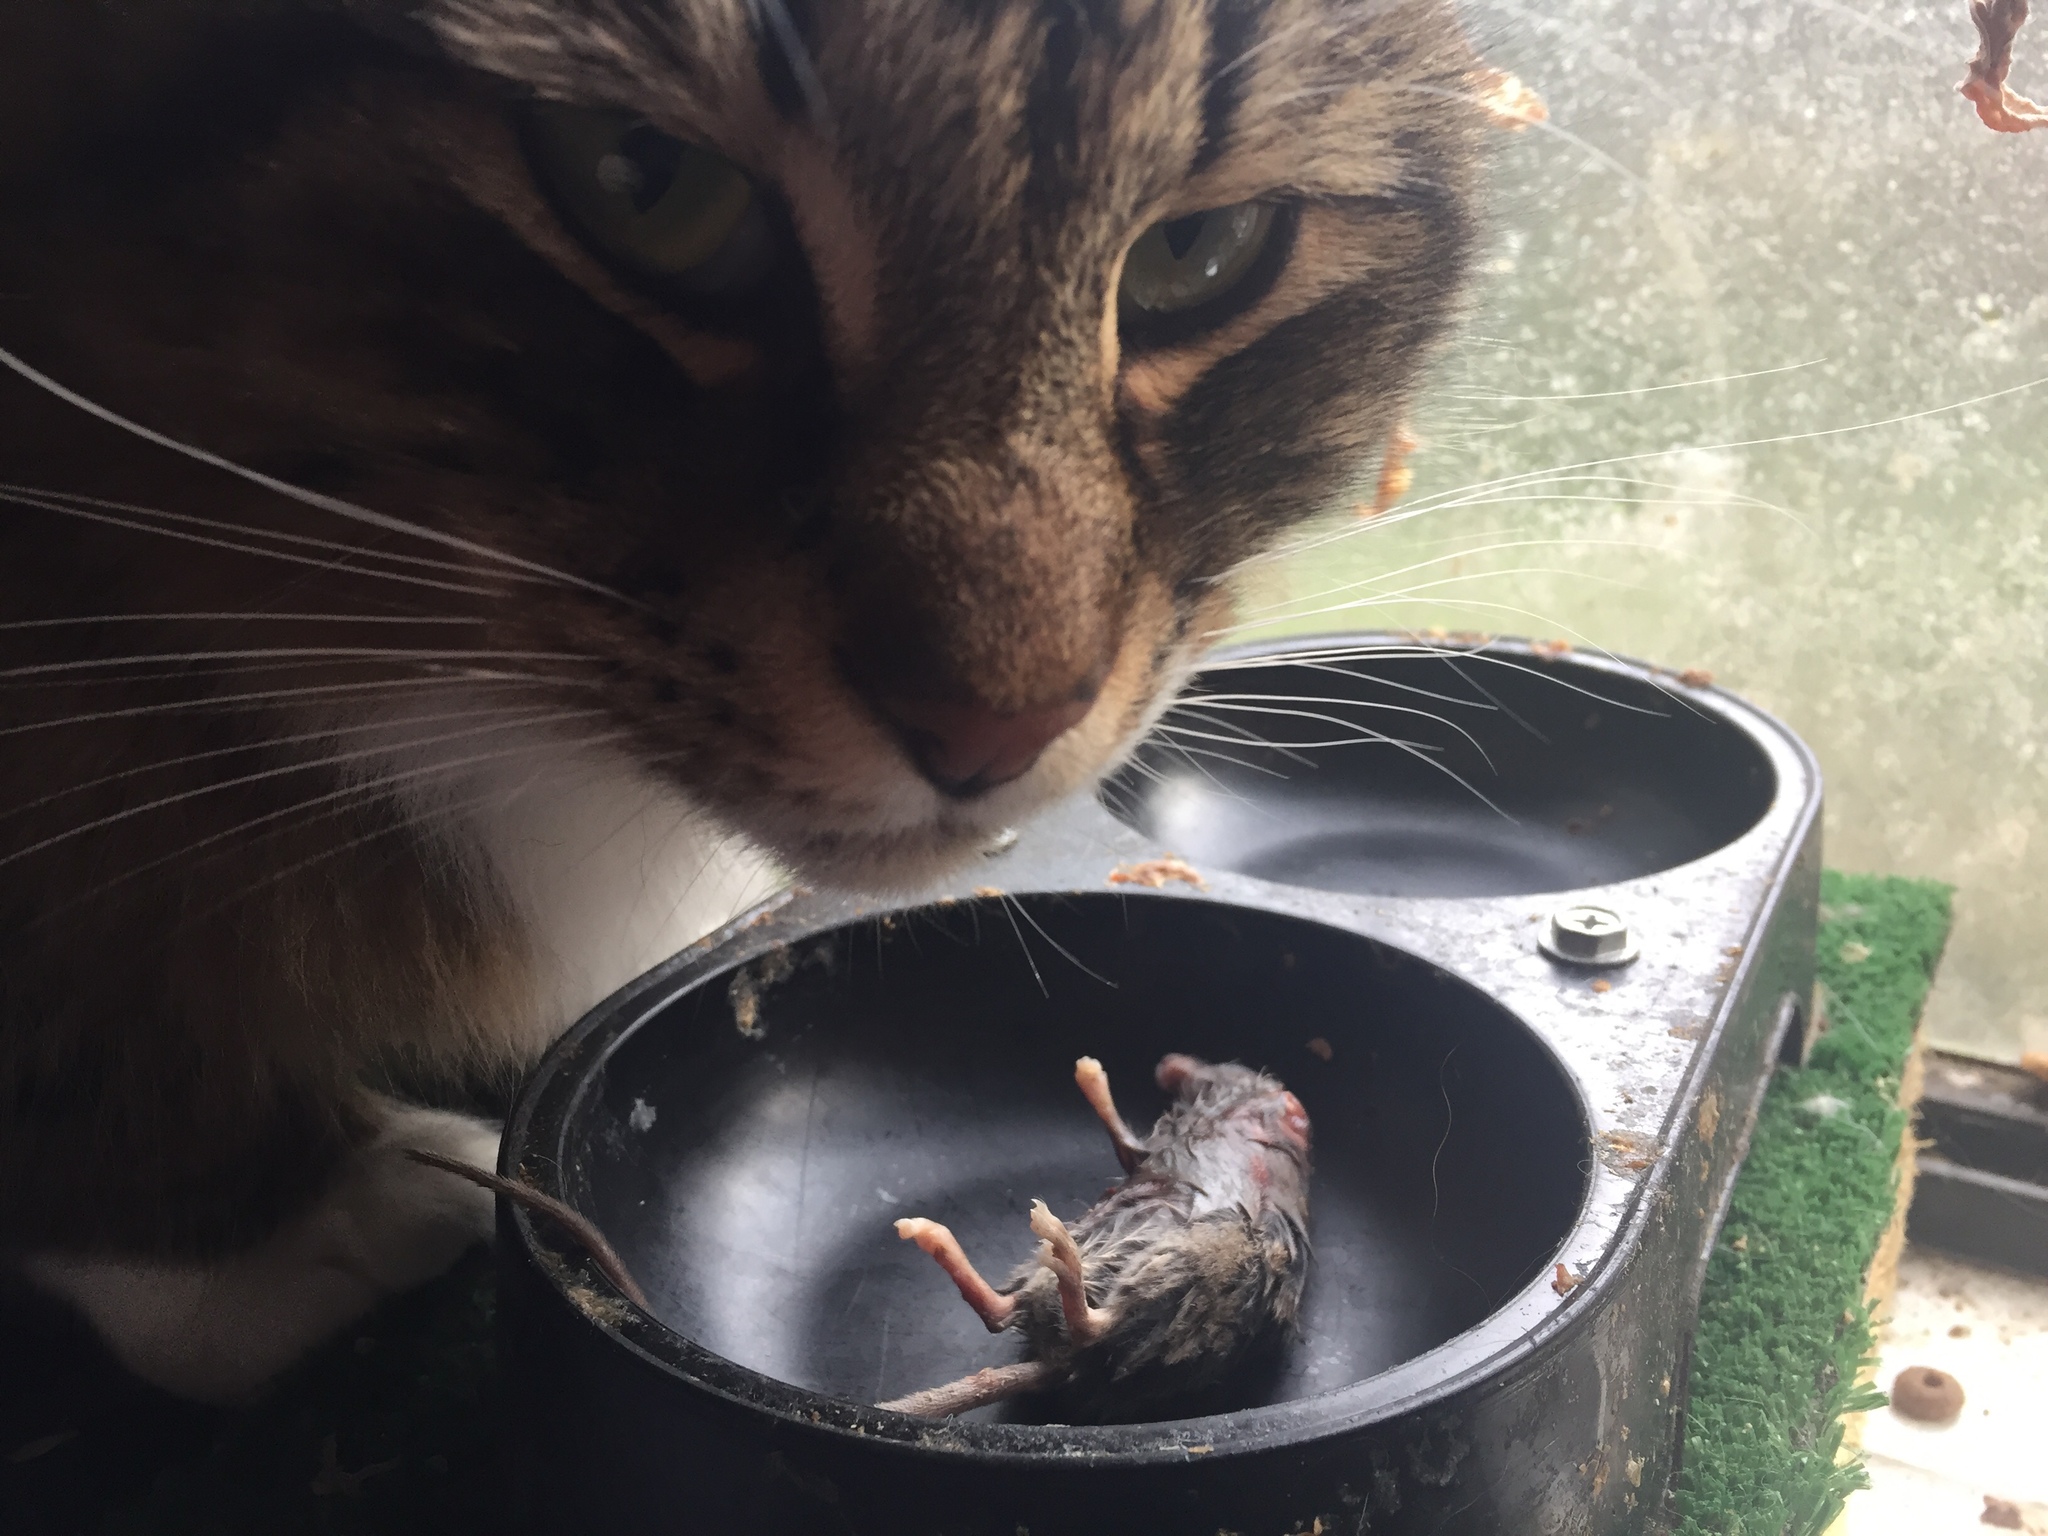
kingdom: Animalia
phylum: Chordata
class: Mammalia
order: Rodentia
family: Muridae
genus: Mus
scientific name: Mus musculus
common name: House mouse
